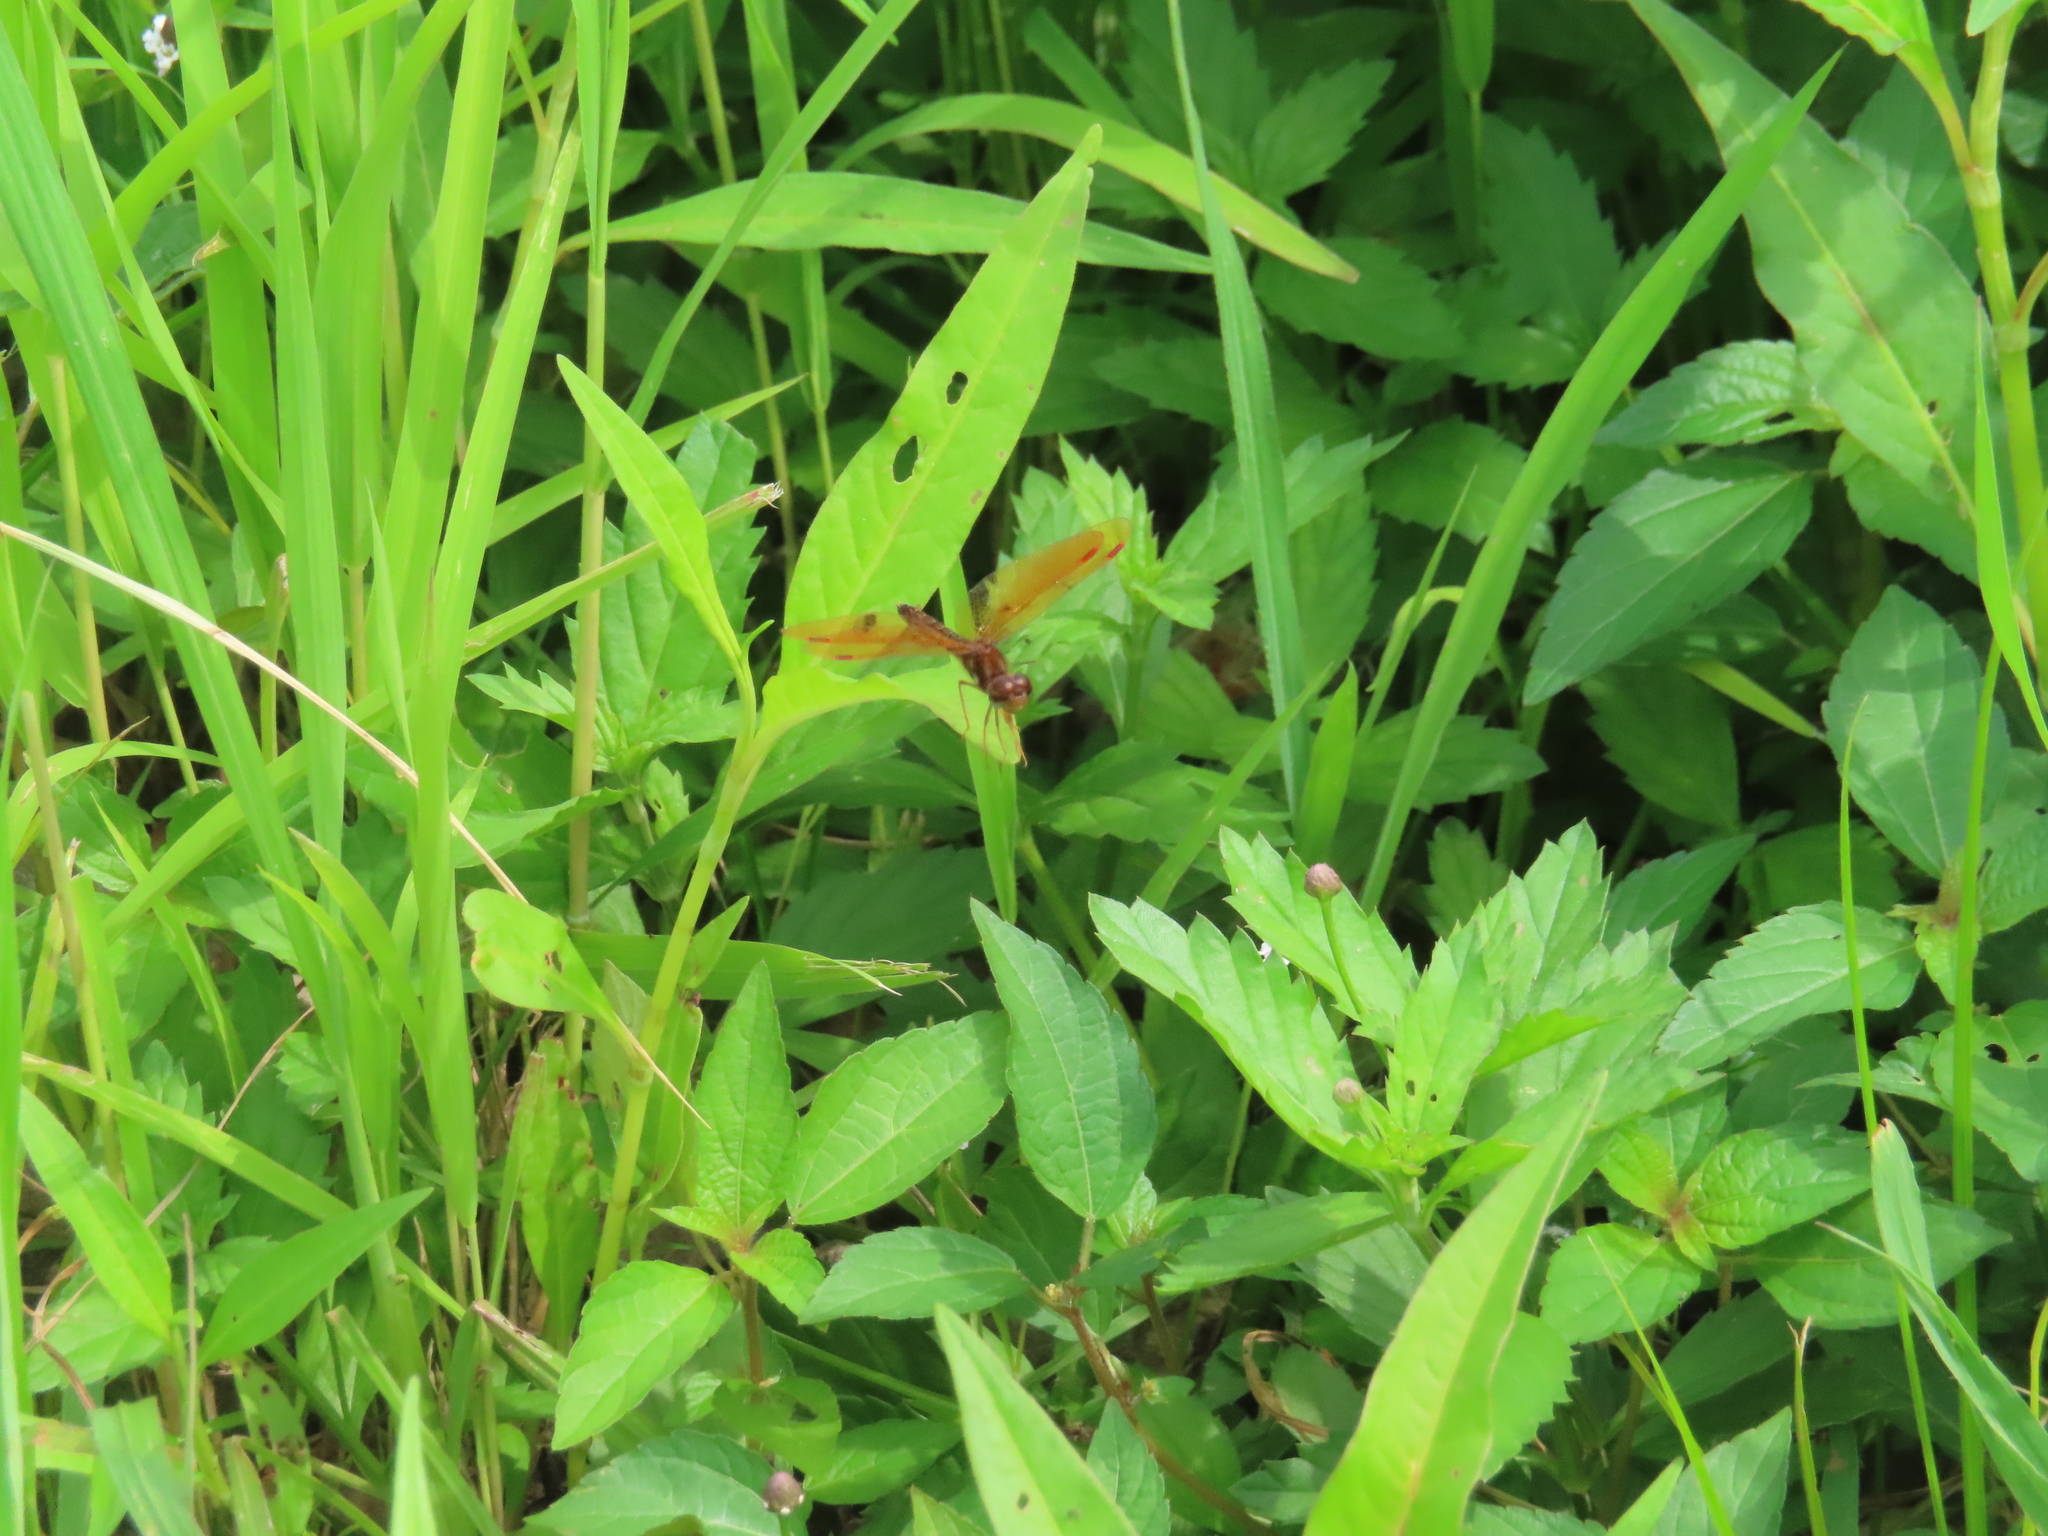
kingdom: Animalia
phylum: Arthropoda
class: Insecta
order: Odonata
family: Libellulidae
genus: Perithemis
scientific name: Perithemis tenera
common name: Eastern amberwing
